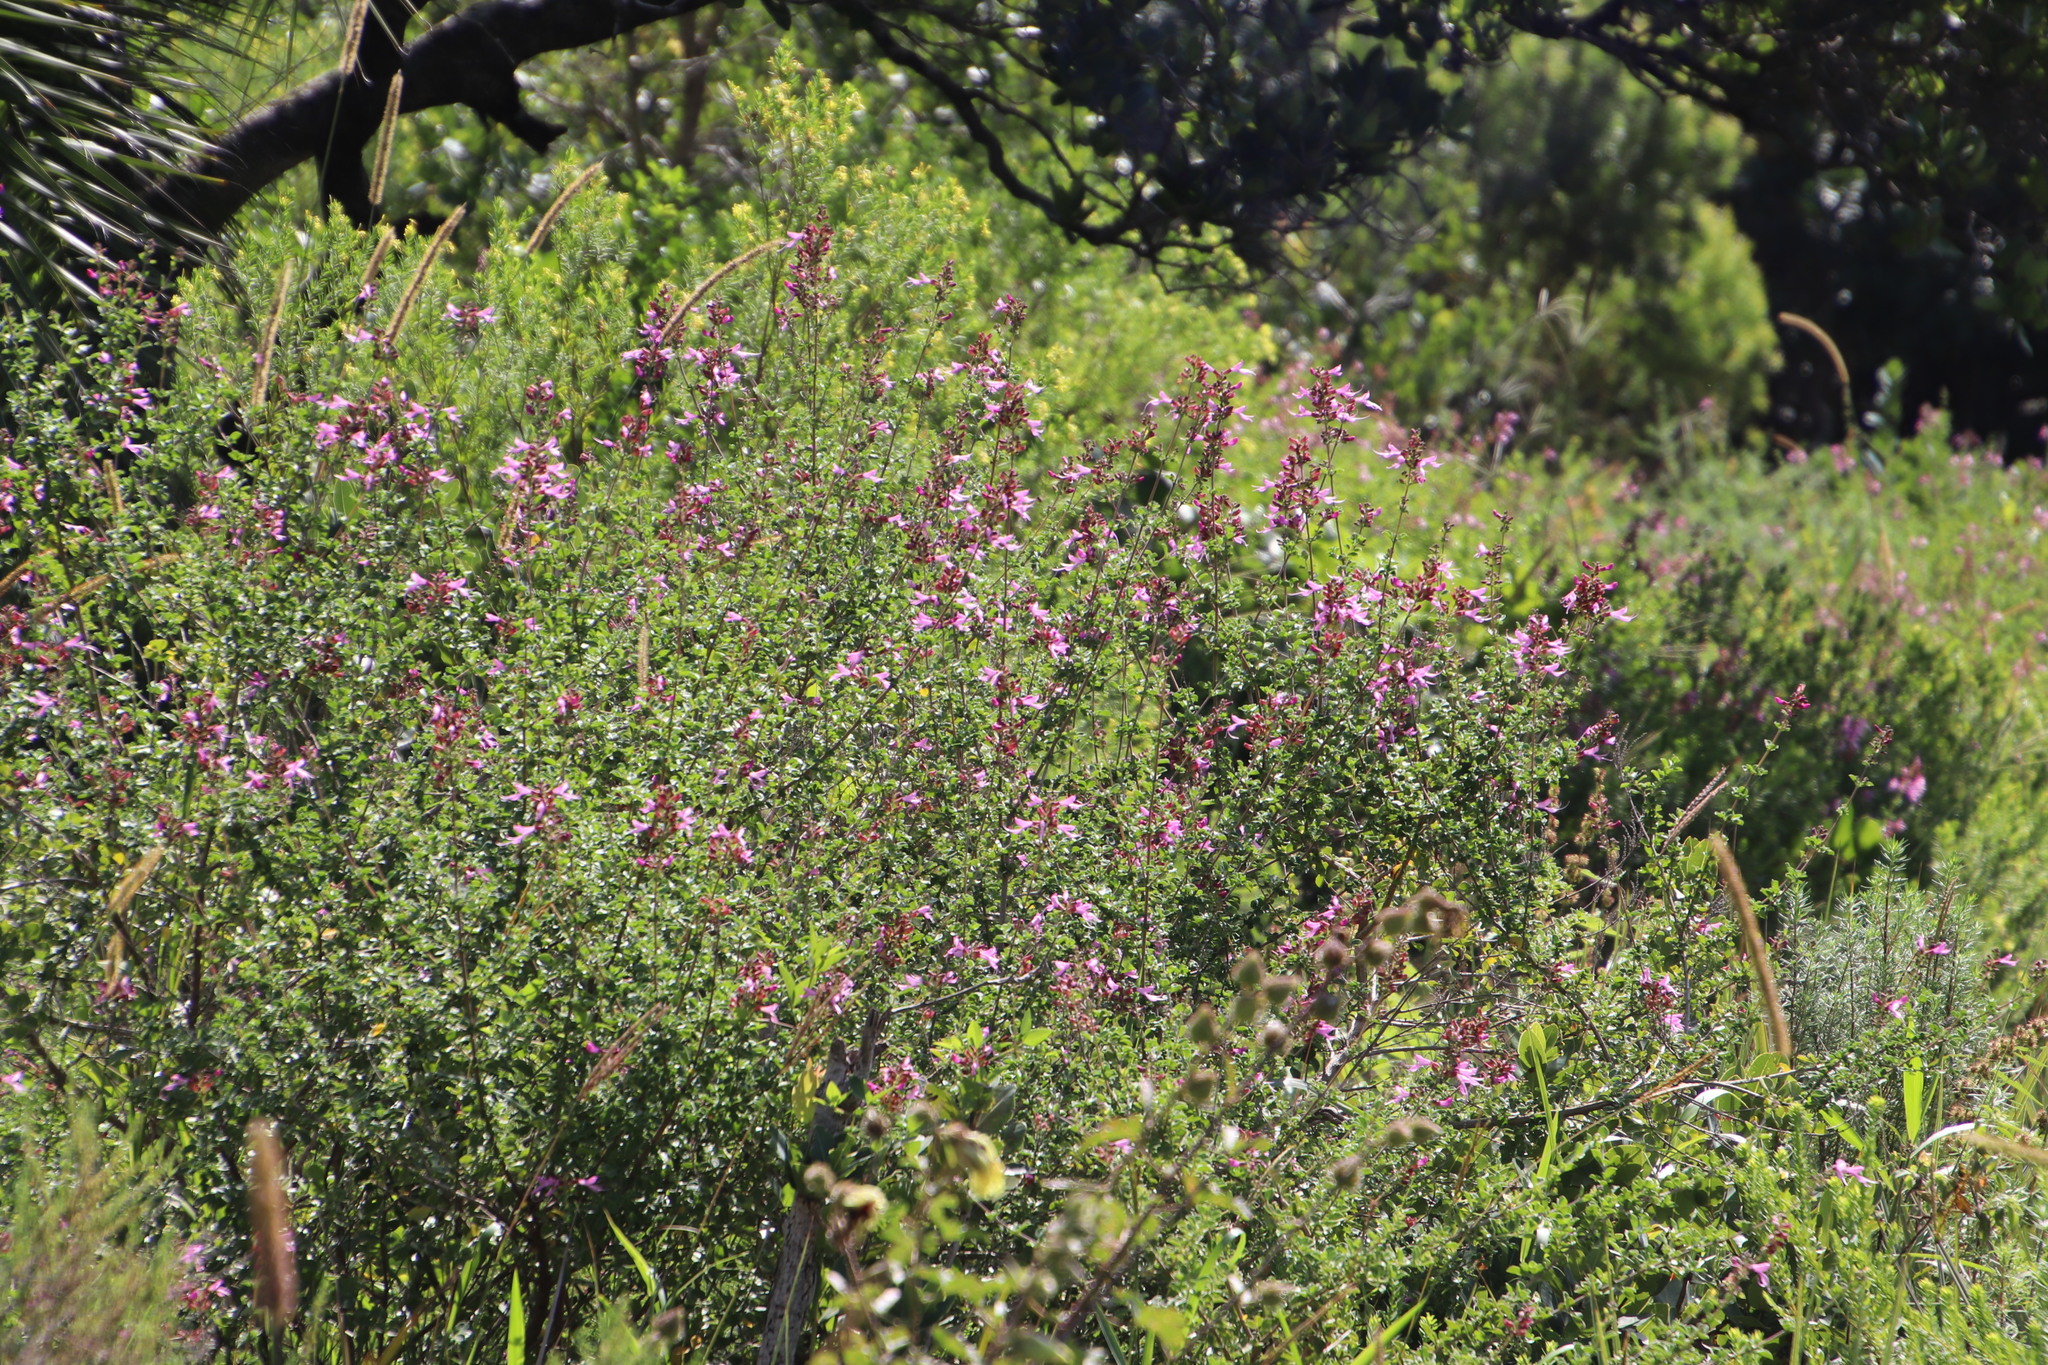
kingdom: Plantae
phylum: Tracheophyta
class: Magnoliopsida
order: Lamiales
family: Lamiaceae
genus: Syncolostemon
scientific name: Syncolostemon rotundifolius
